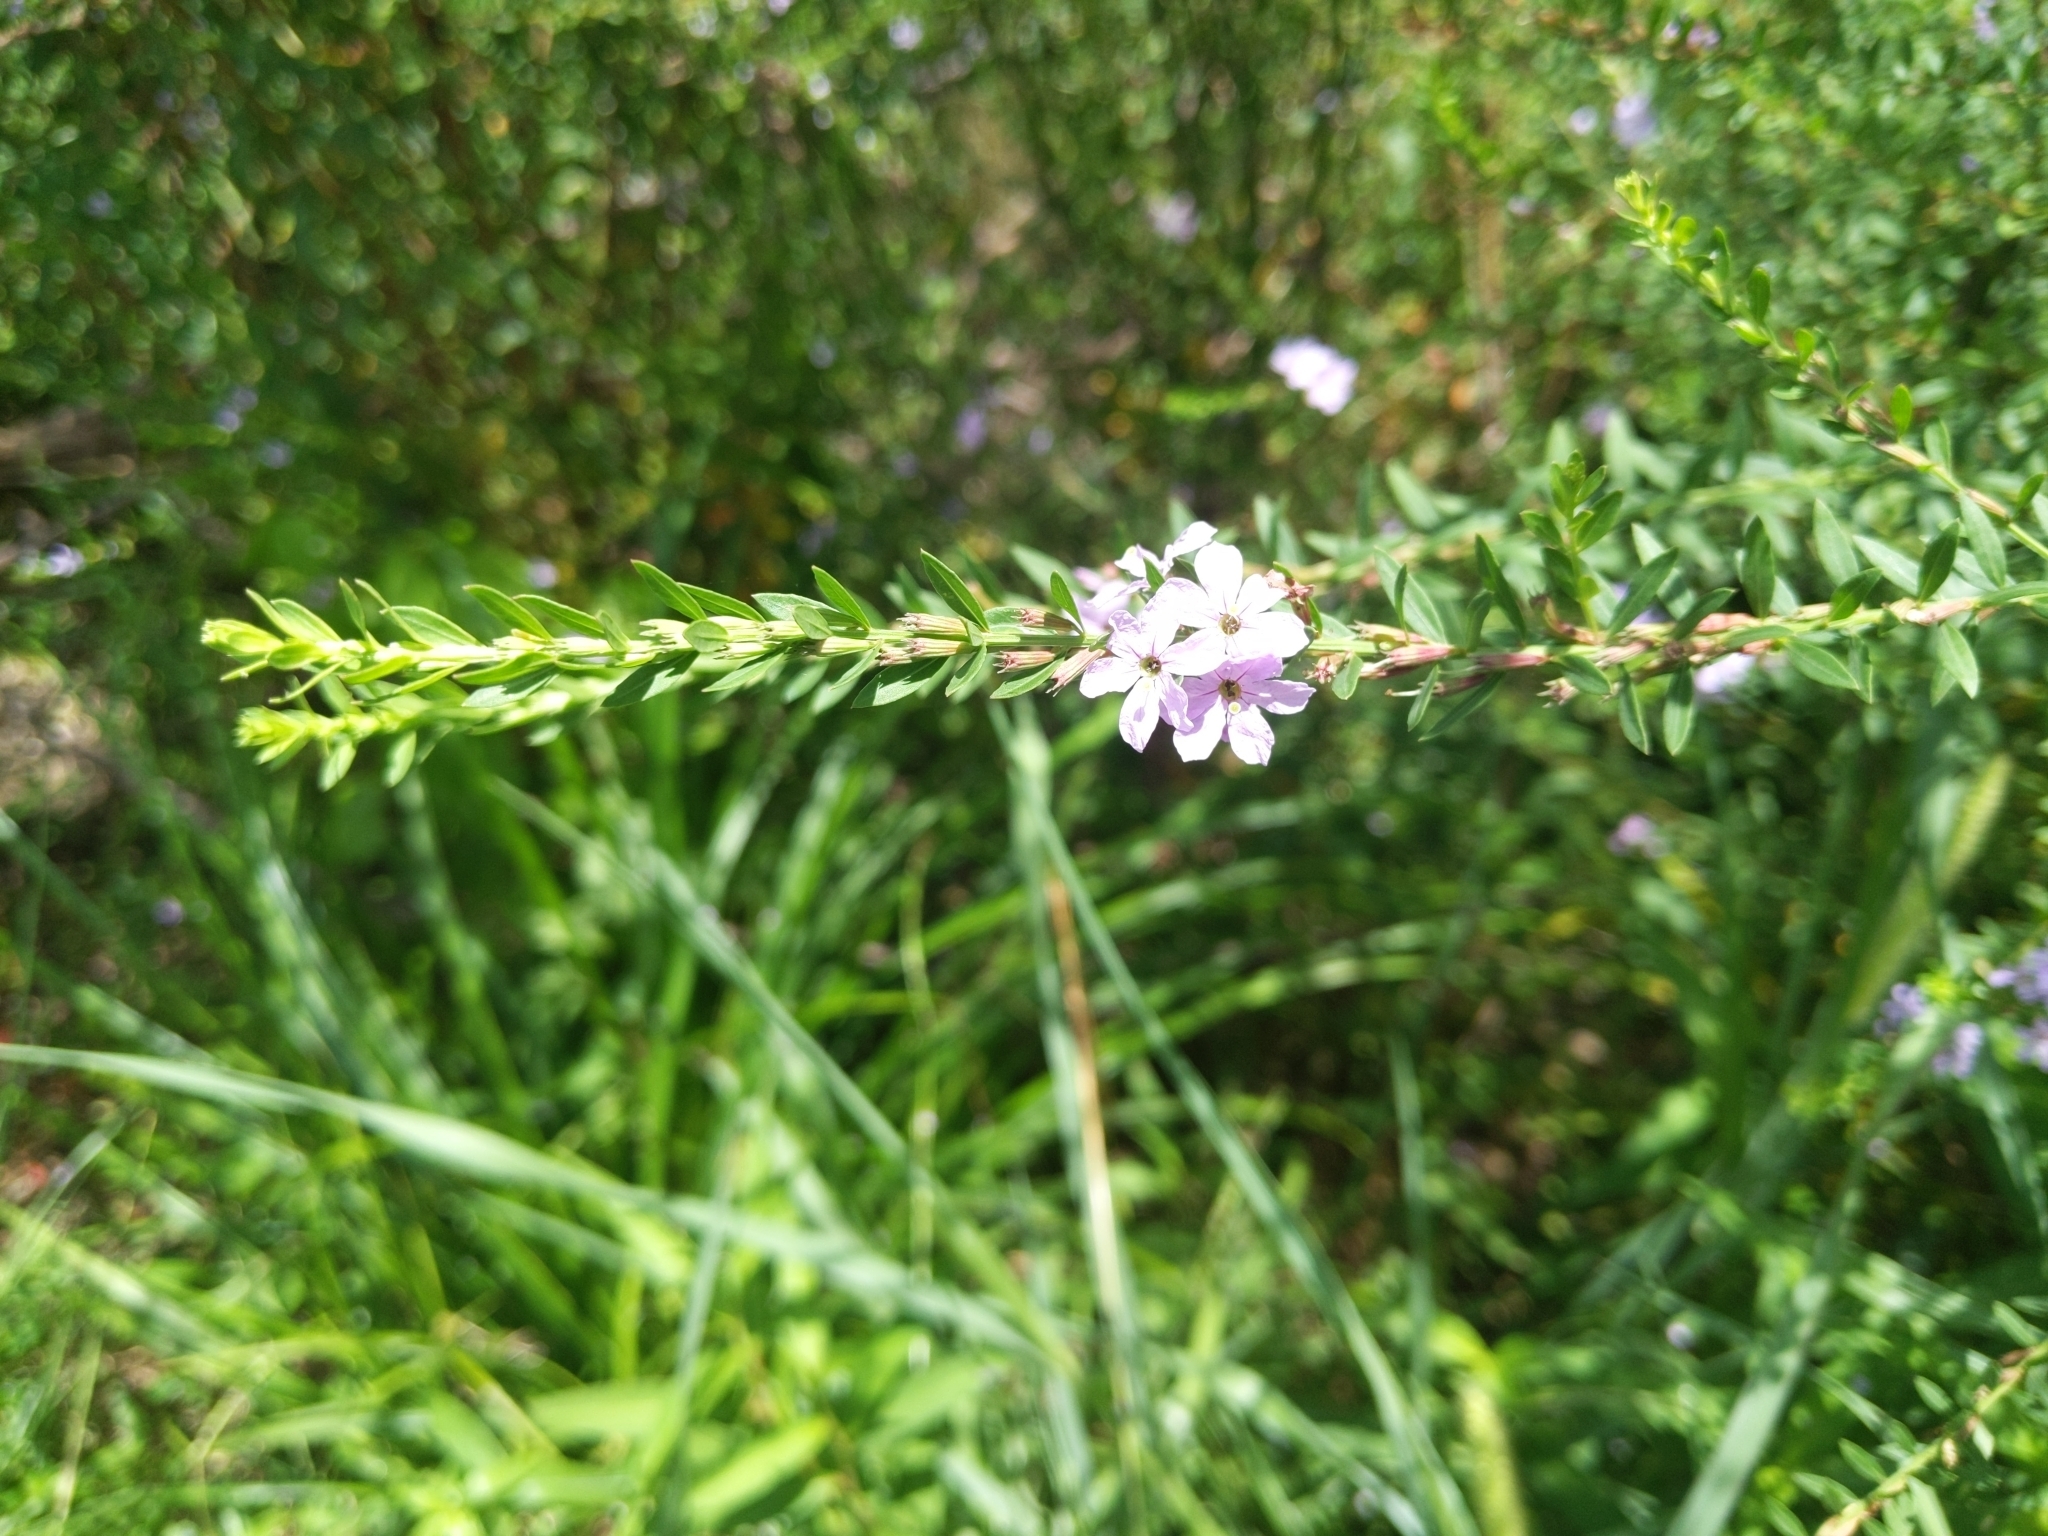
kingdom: Plantae
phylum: Tracheophyta
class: Magnoliopsida
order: Myrtales
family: Lythraceae
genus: Lythrum
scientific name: Lythrum alatum
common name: Winged loosestrife
